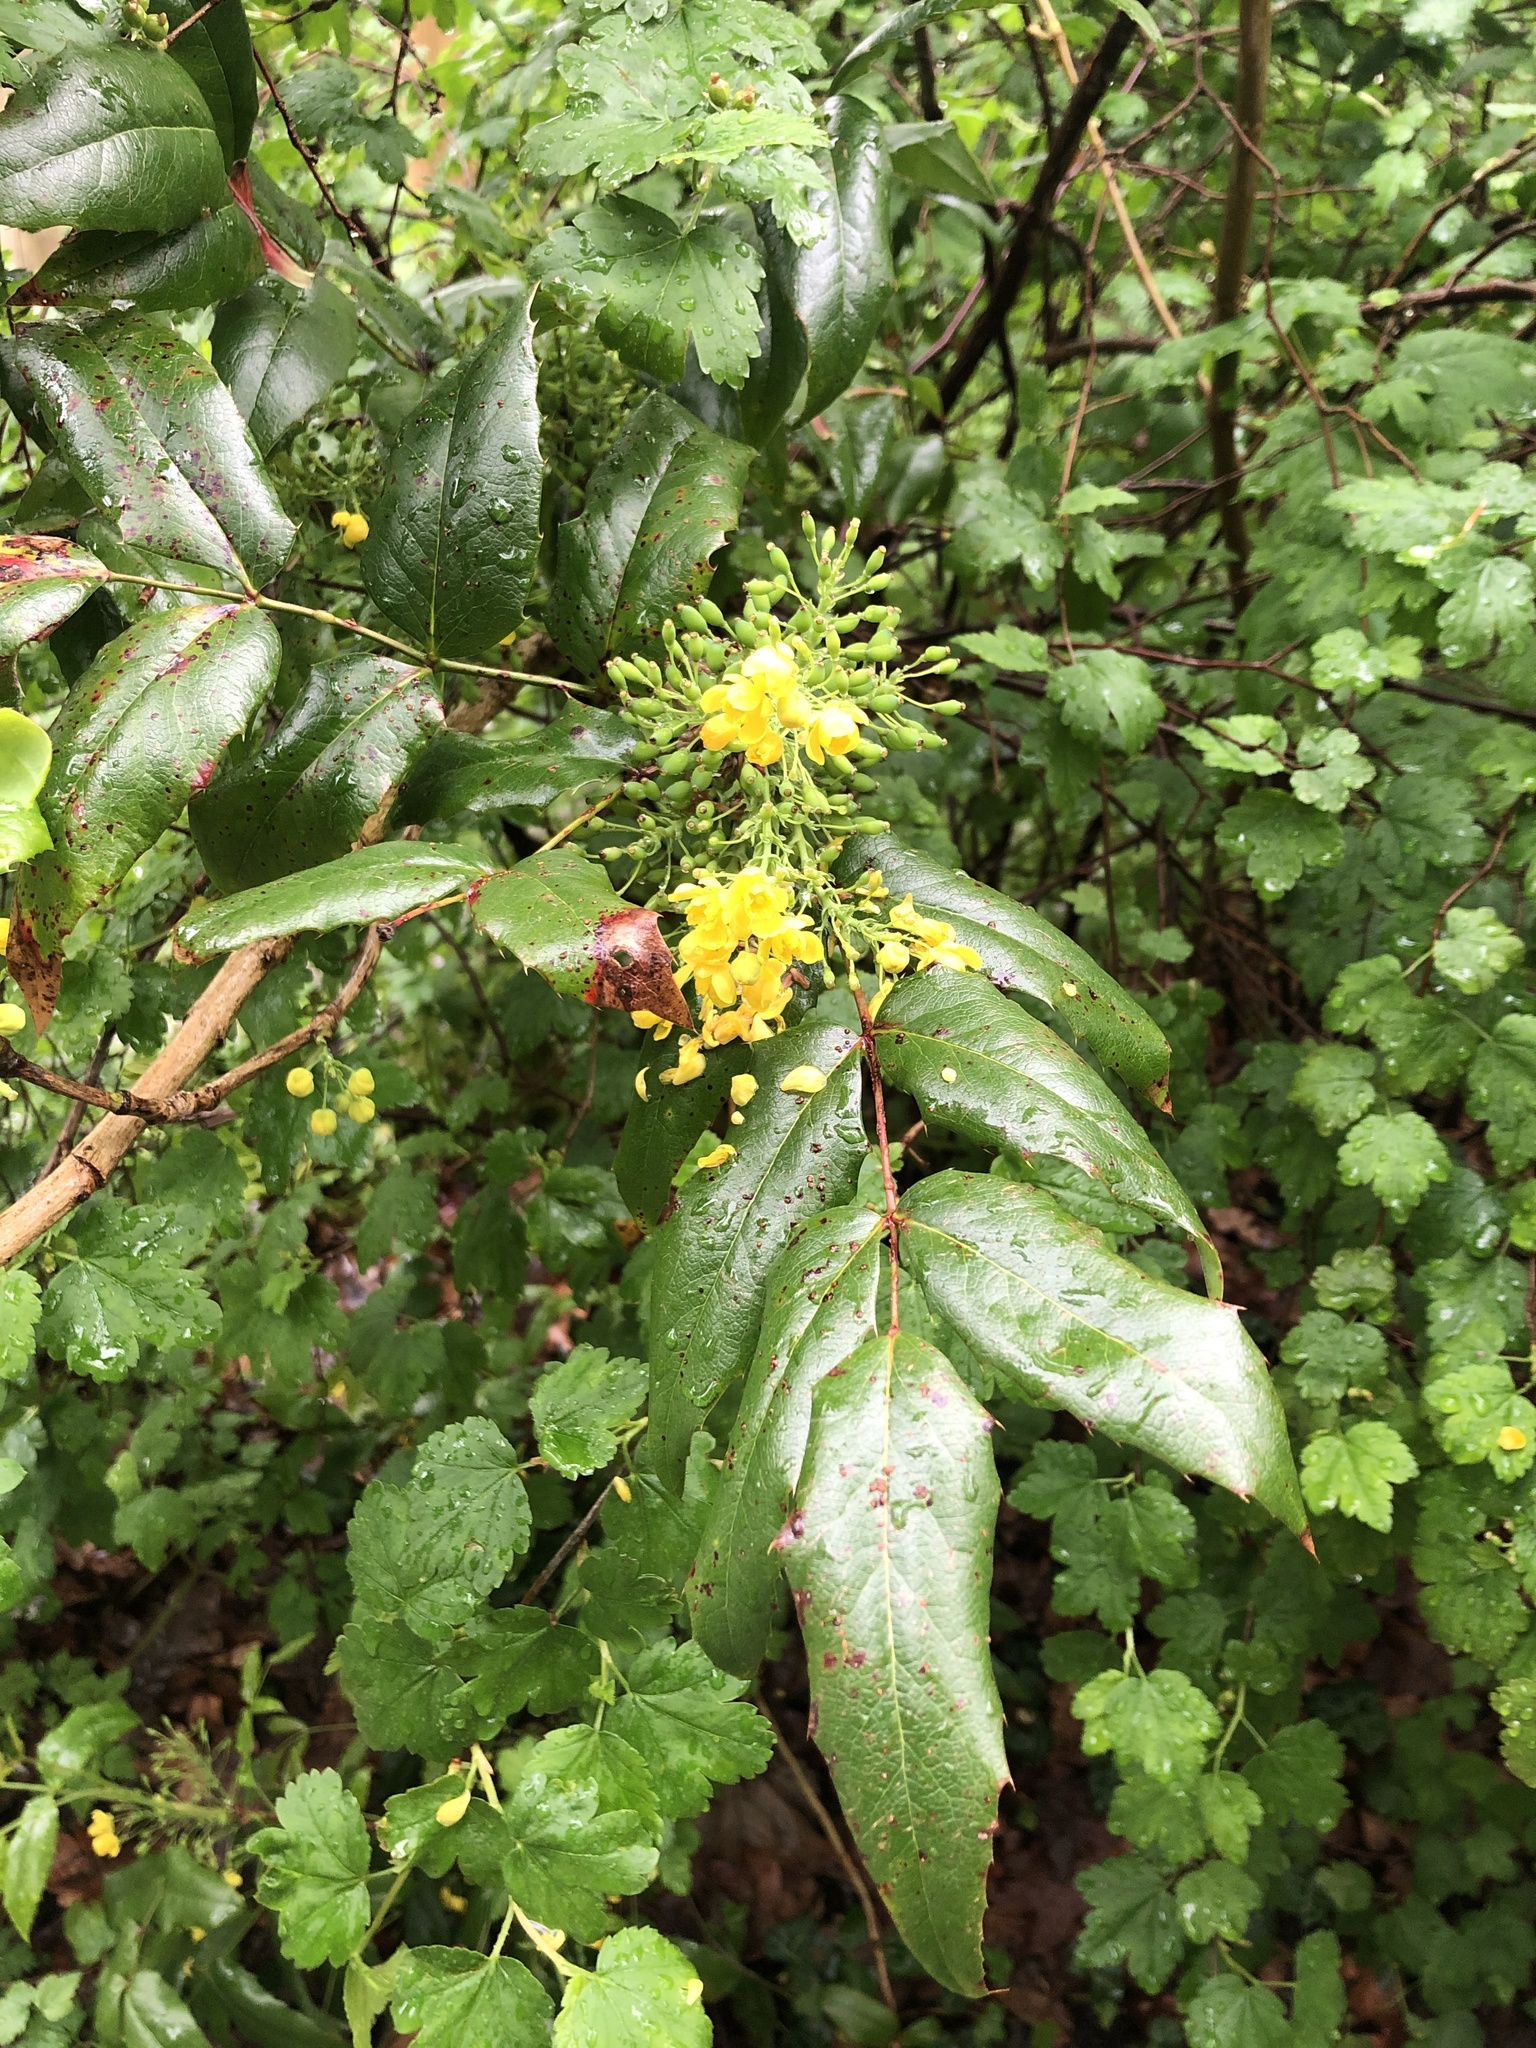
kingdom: Plantae
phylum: Tracheophyta
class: Magnoliopsida
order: Ranunculales
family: Berberidaceae
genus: Mahonia
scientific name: Mahonia aquifolium
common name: Oregon-grape
